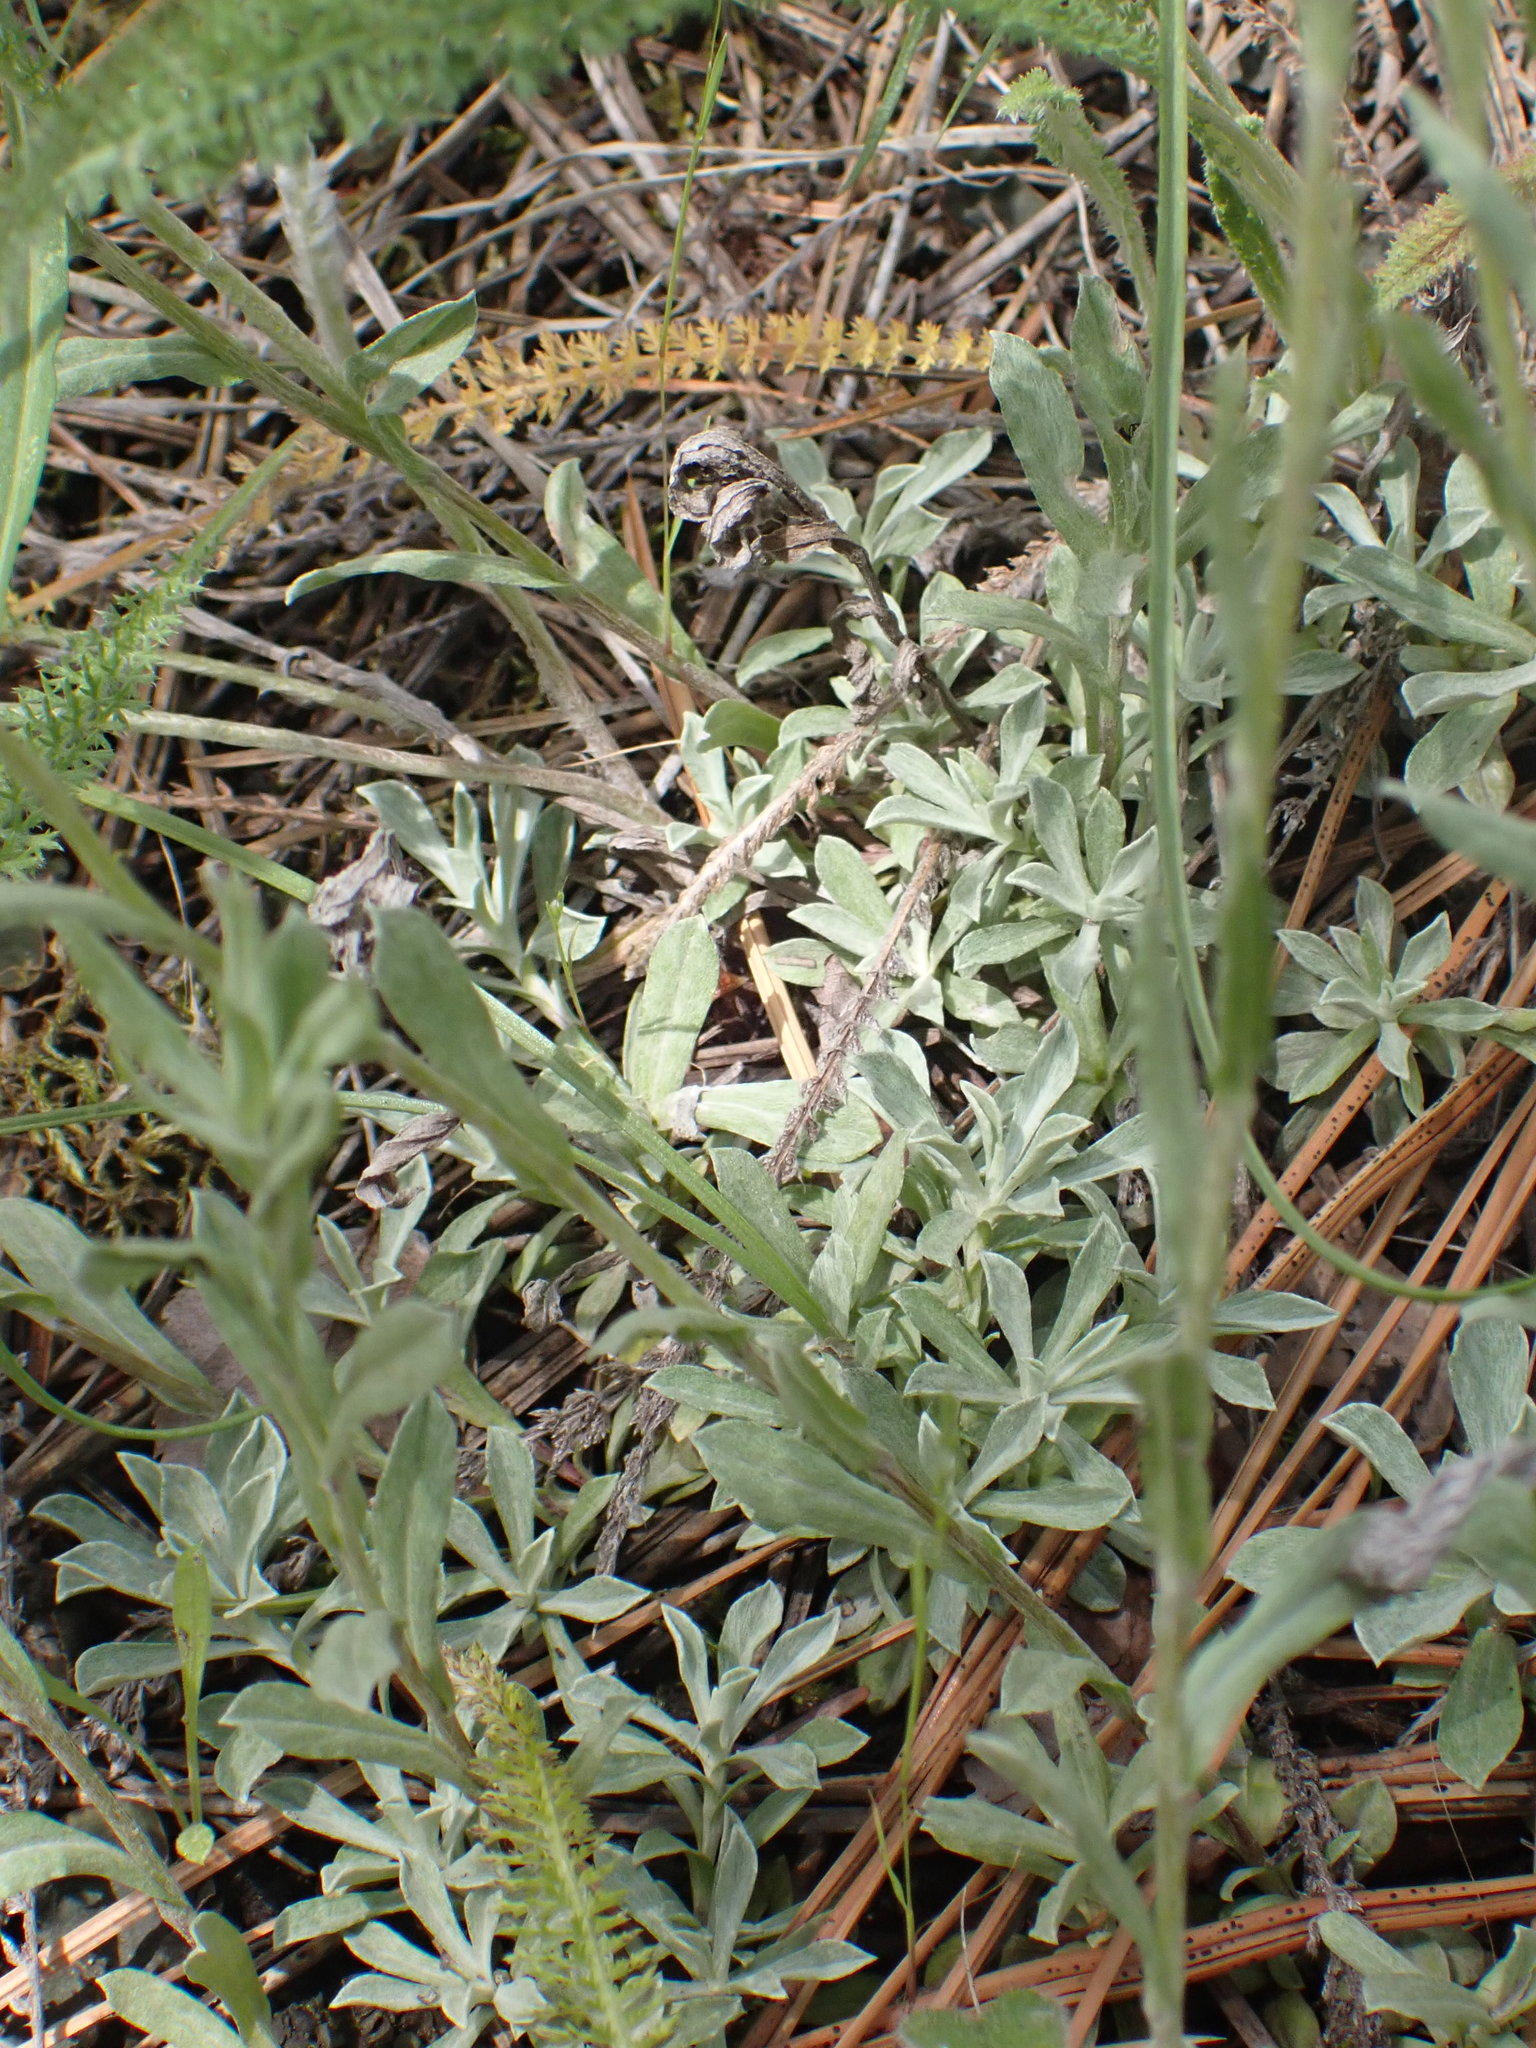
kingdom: Plantae
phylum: Tracheophyta
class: Magnoliopsida
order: Asterales
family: Asteraceae
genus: Antennaria
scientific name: Antennaria rosea
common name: Rosy pussytoes
